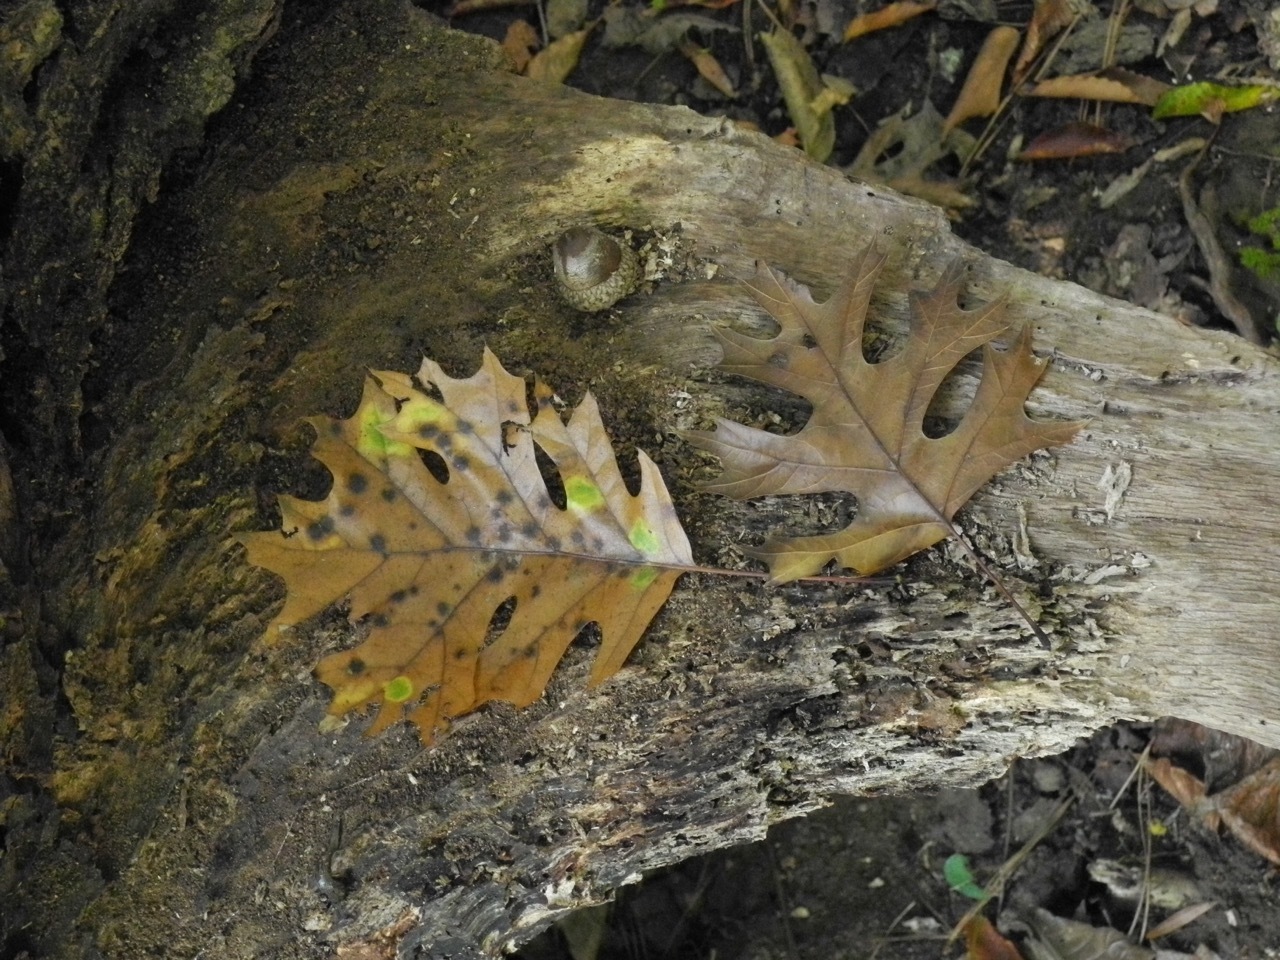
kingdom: Plantae
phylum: Tracheophyta
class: Magnoliopsida
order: Fagales
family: Fagaceae
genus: Quercus
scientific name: Quercus shumardii
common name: Shumard oak
